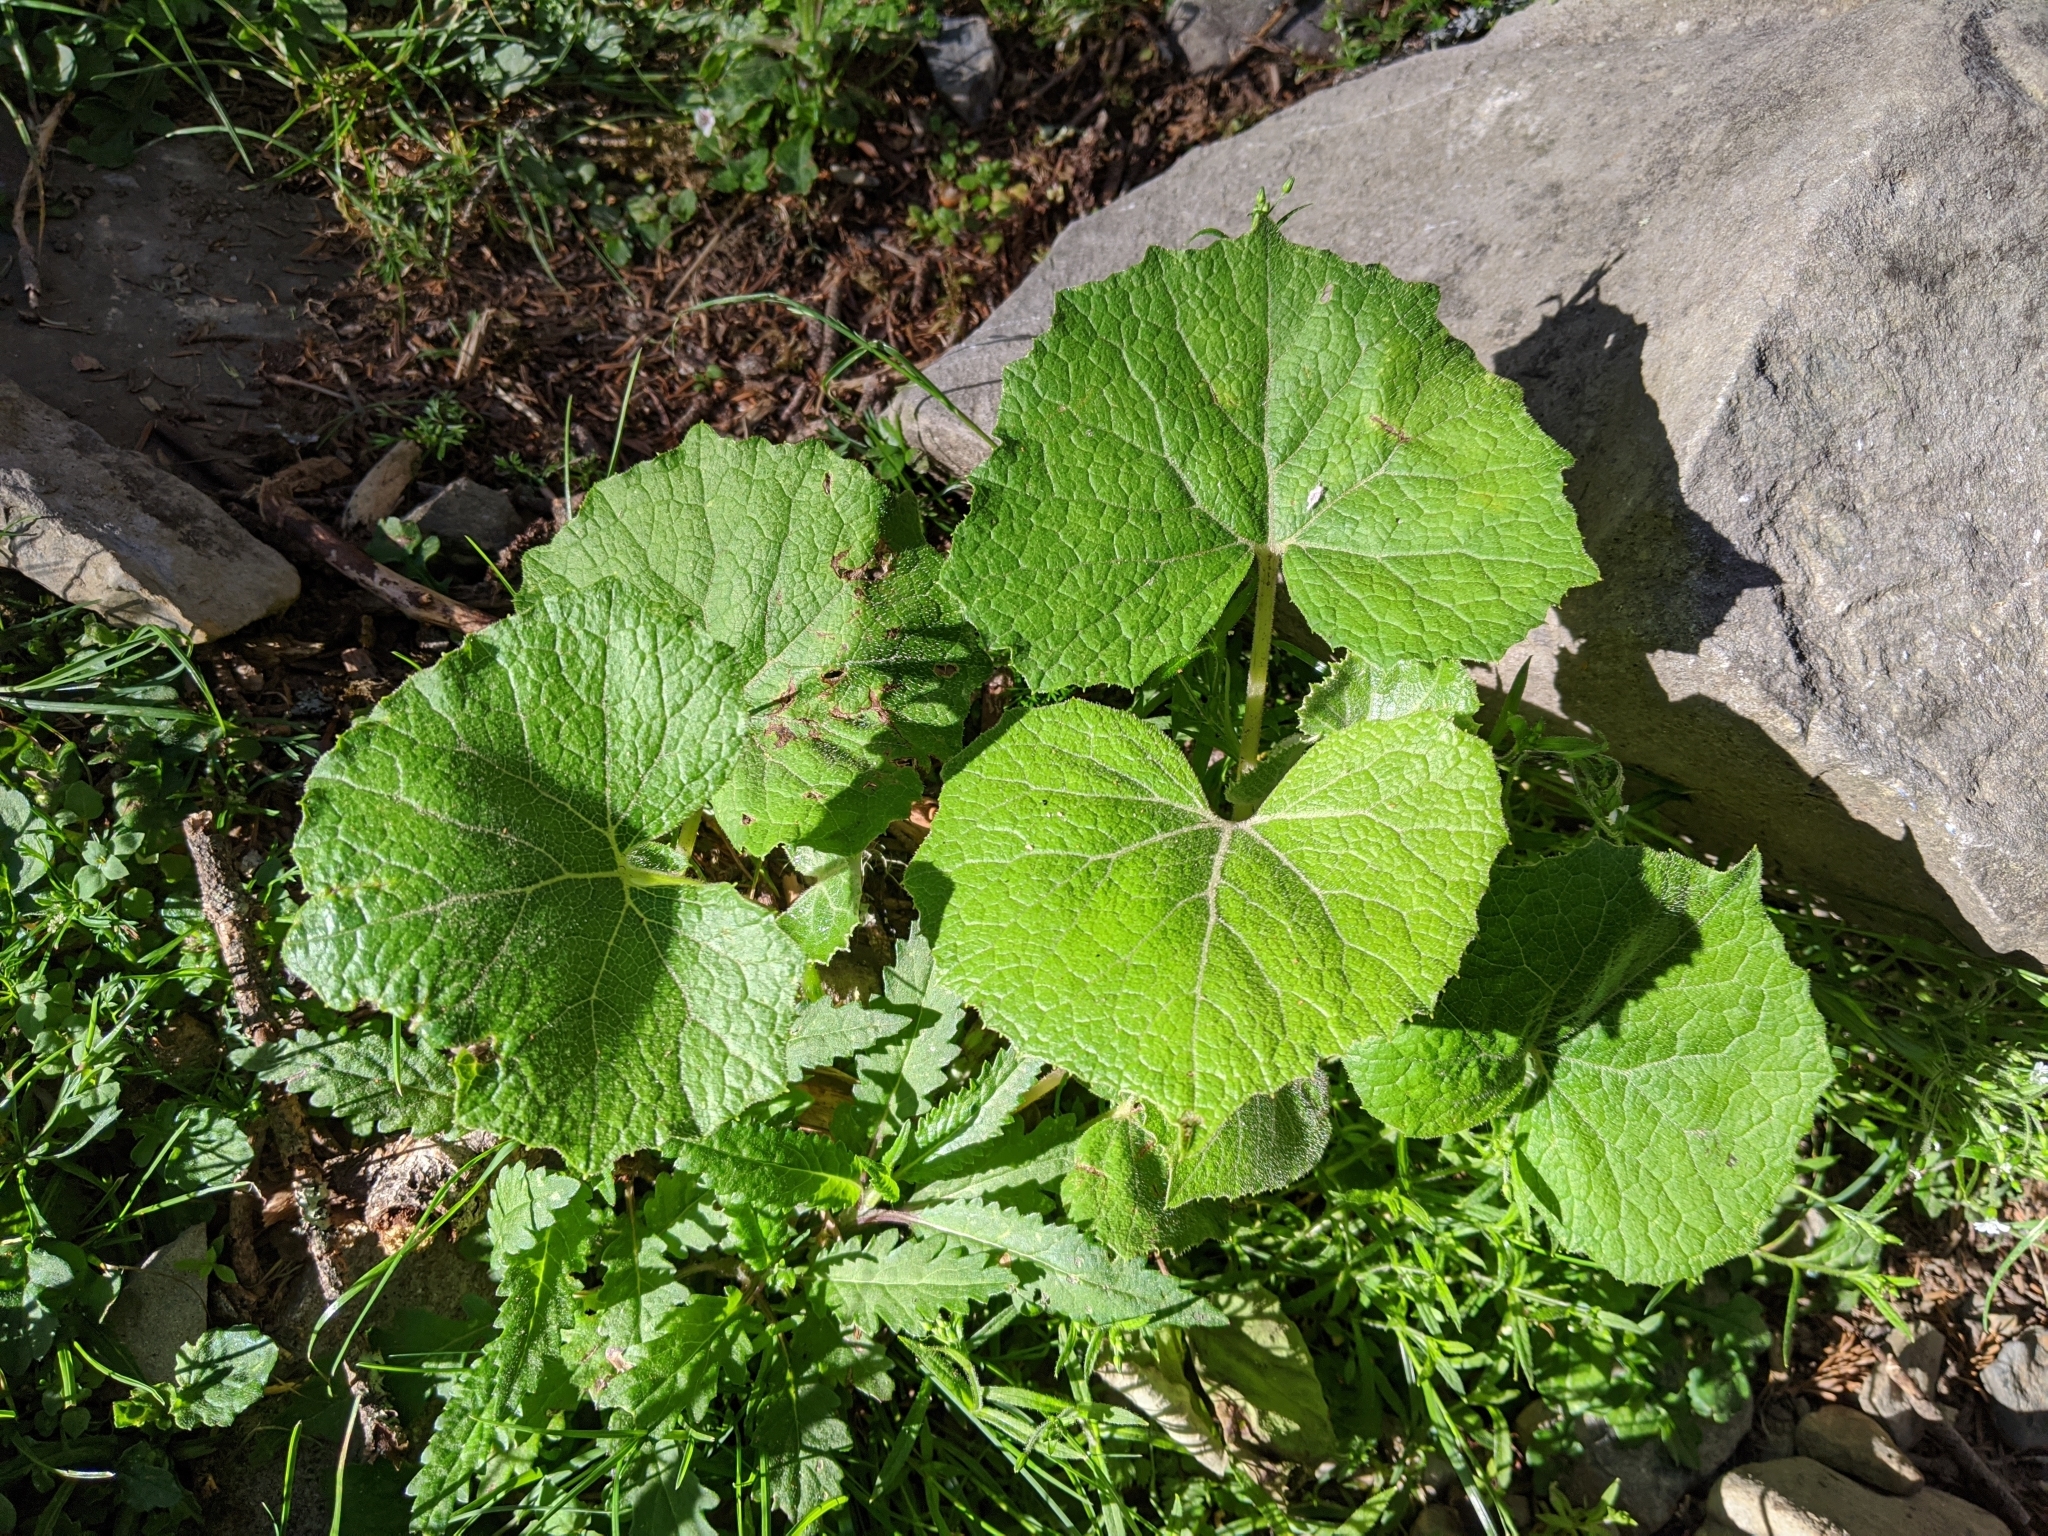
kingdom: Plantae
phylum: Tracheophyta
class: Magnoliopsida
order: Asterales
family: Asteraceae
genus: Parasenecio
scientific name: Parasenecio sylviaensis
